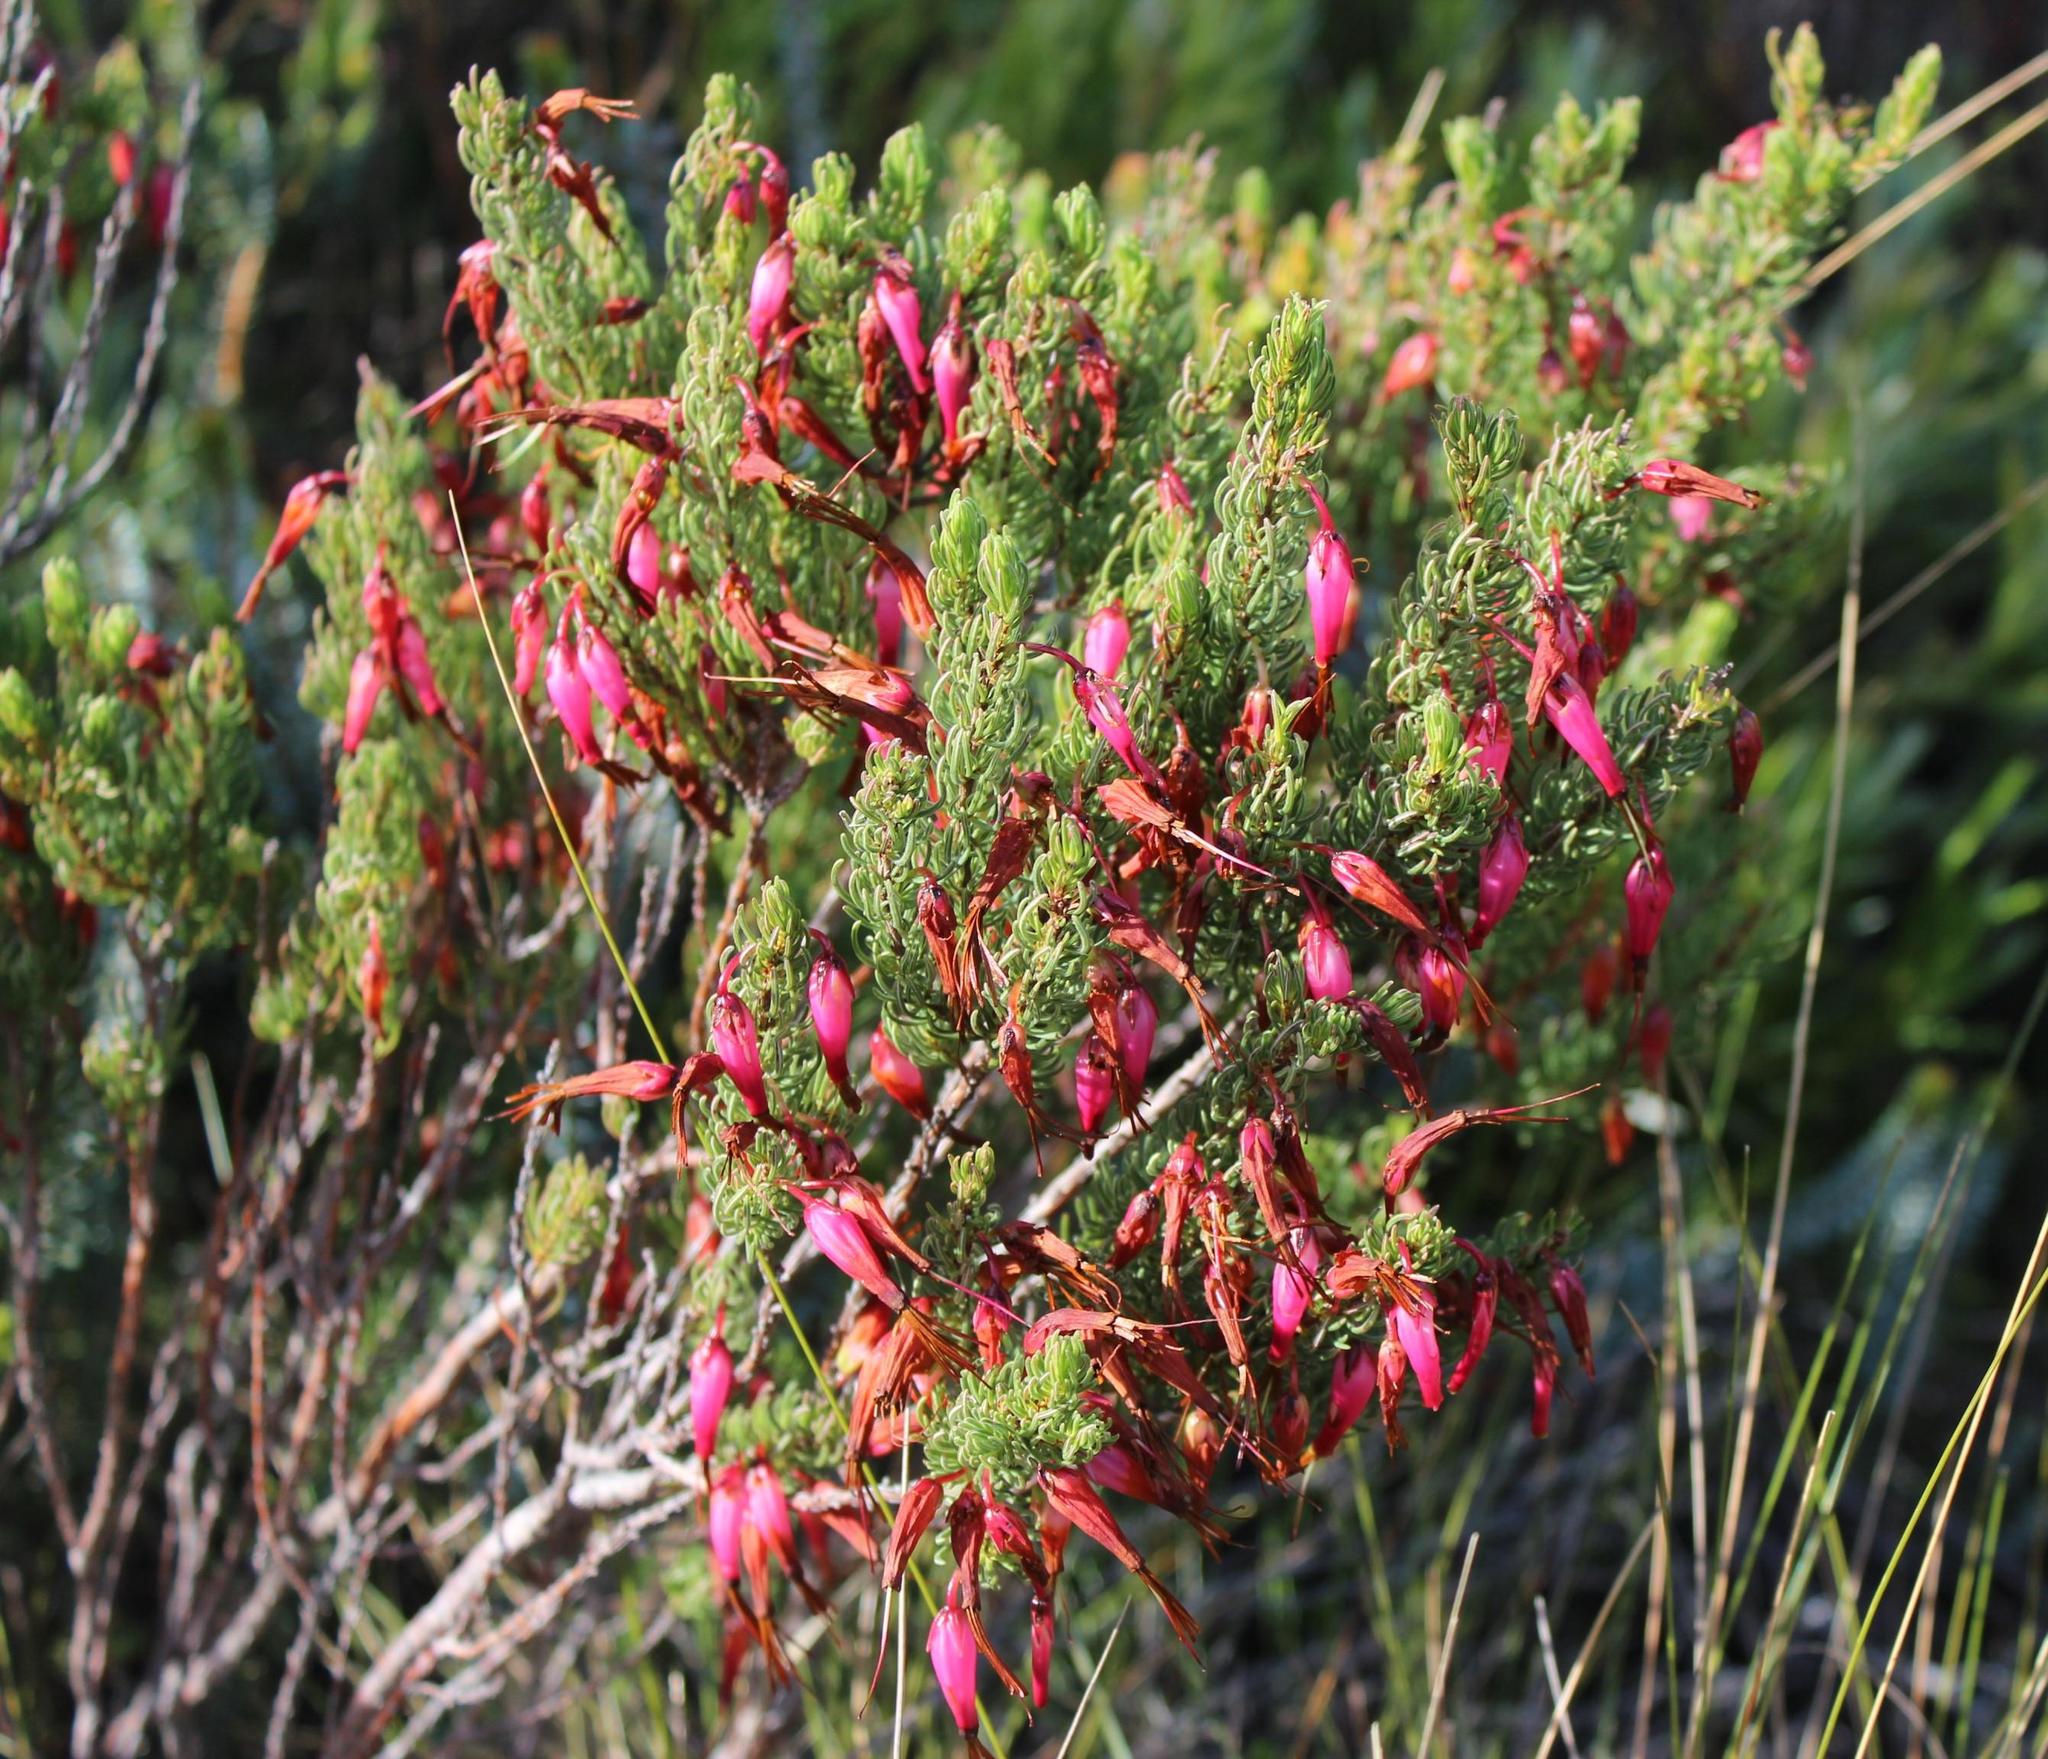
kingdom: Plantae
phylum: Tracheophyta
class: Magnoliopsida
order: Ericales
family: Ericaceae
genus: Erica
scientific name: Erica plukenetii
